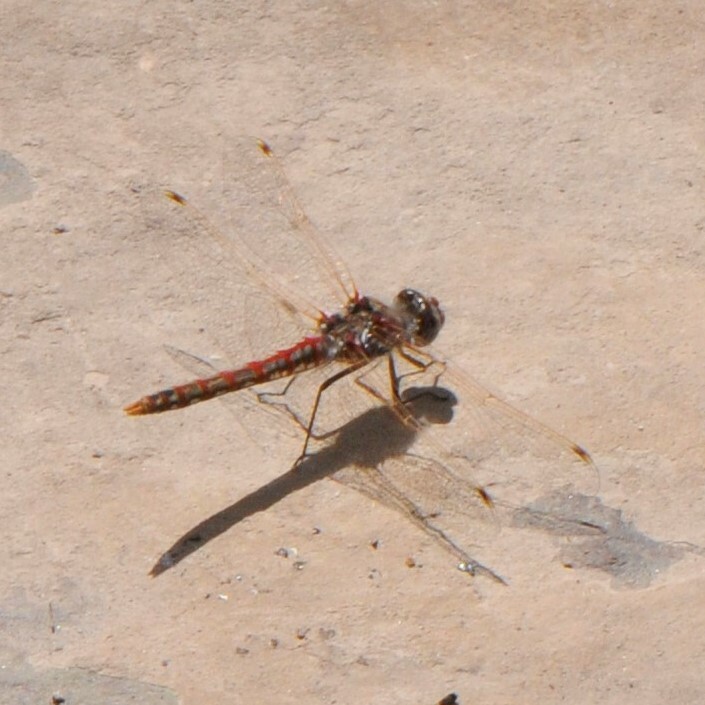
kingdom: Animalia
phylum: Arthropoda
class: Insecta
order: Odonata
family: Libellulidae
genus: Sympetrum
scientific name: Sympetrum corruptum
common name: Variegated meadowhawk
